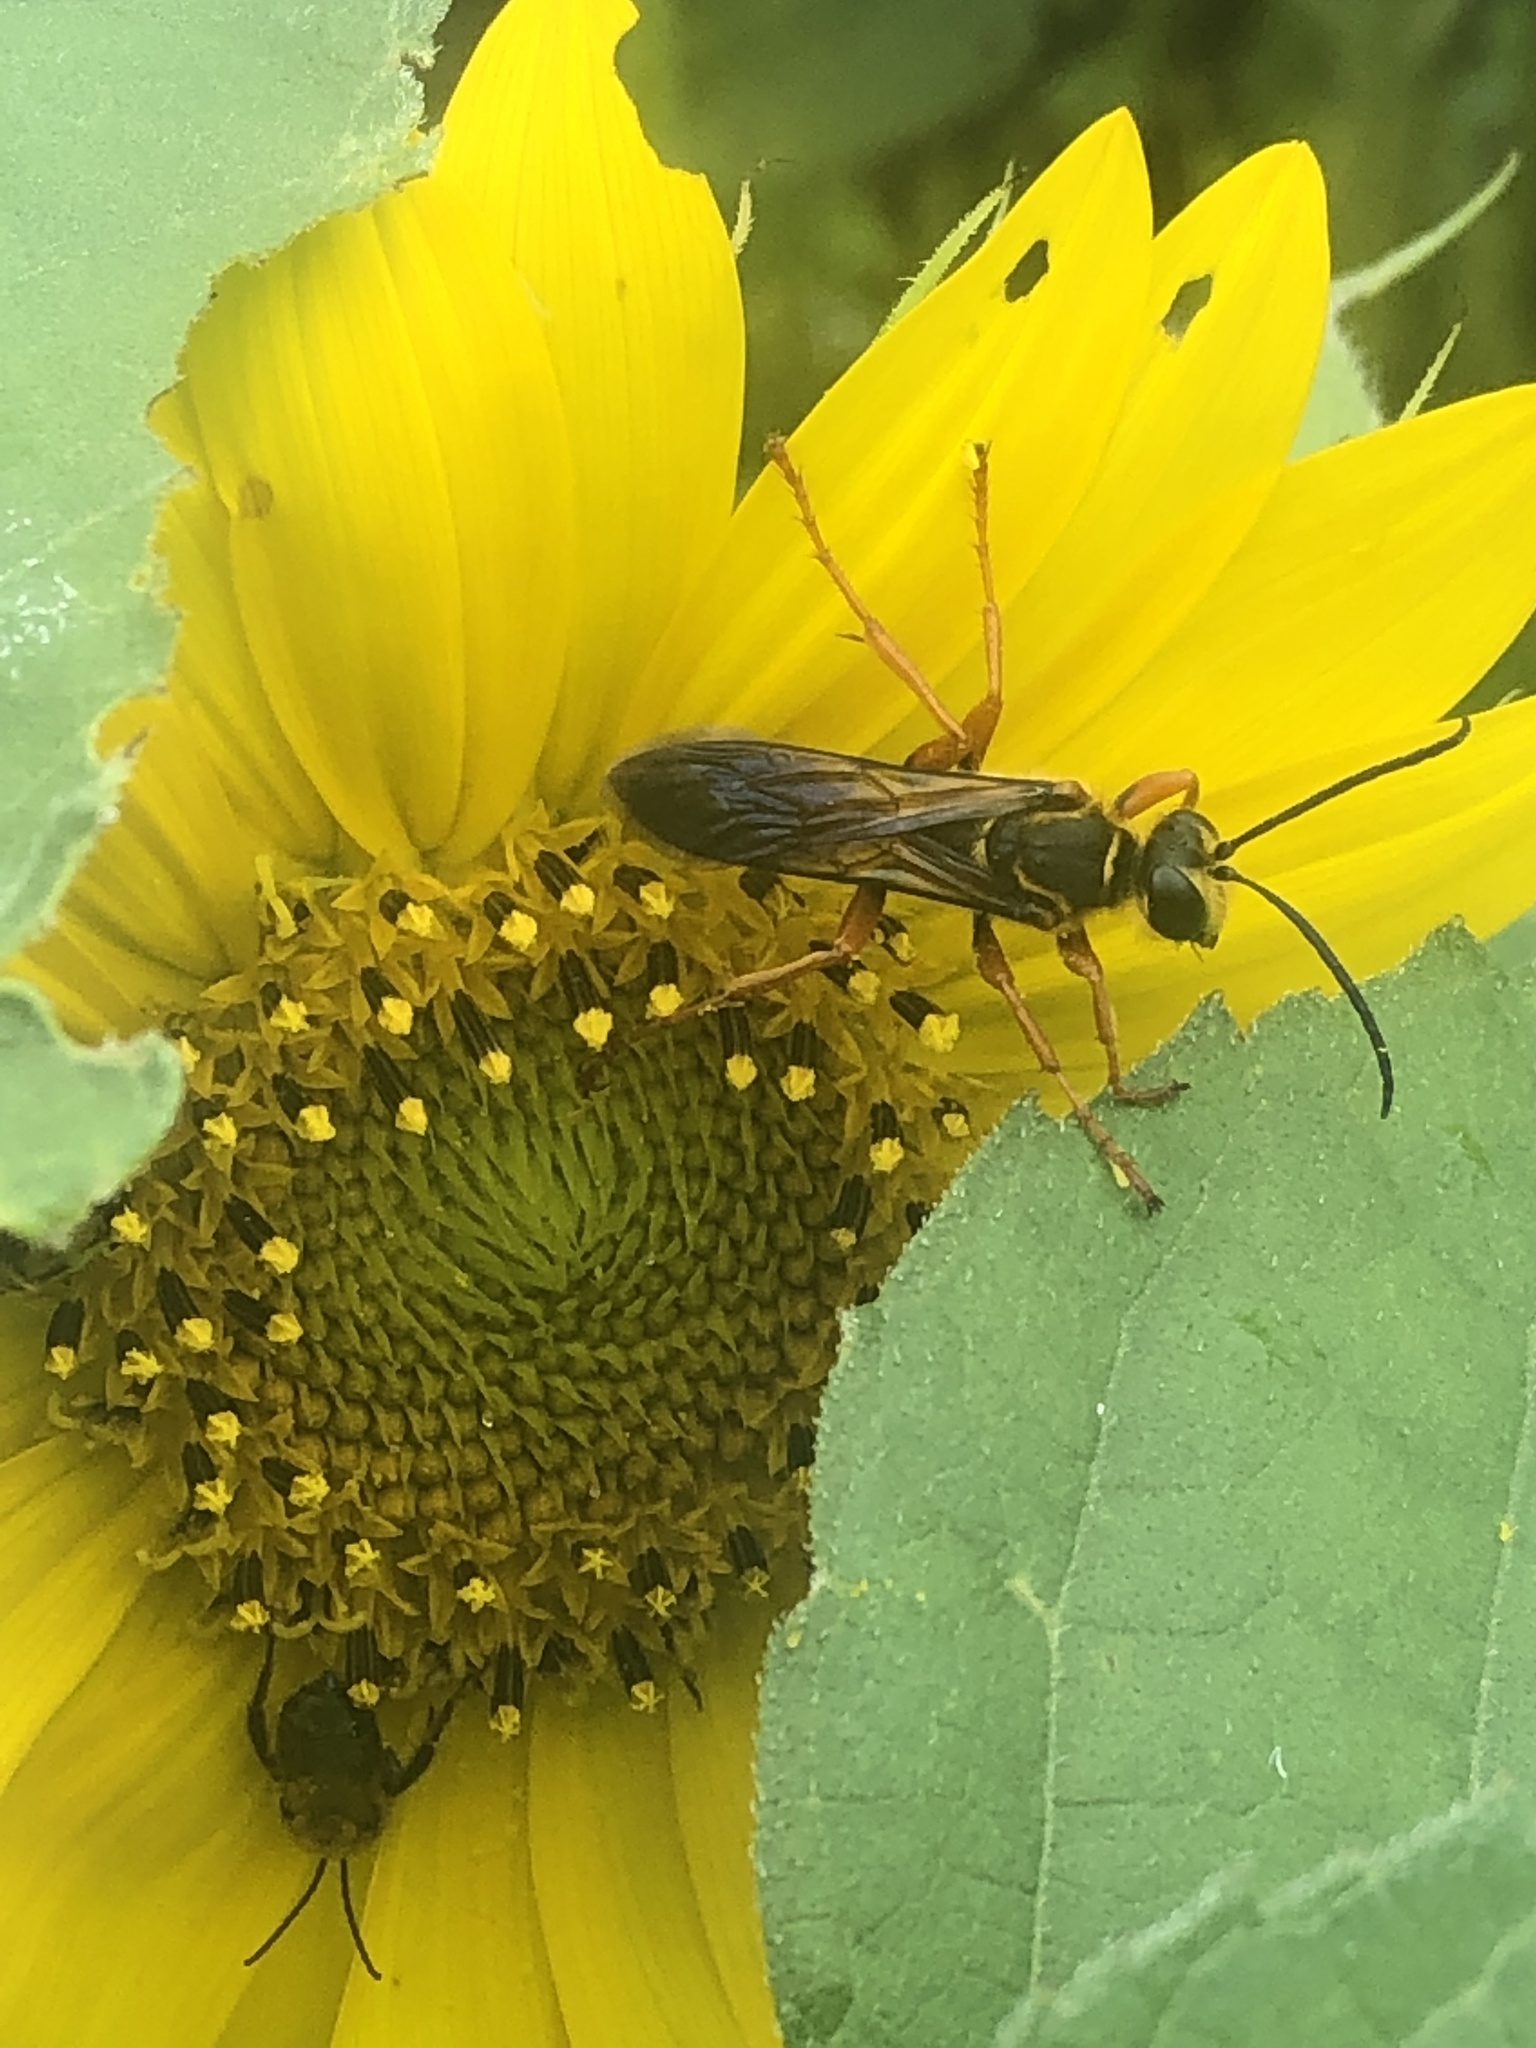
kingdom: Animalia
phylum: Arthropoda
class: Insecta
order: Hymenoptera
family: Sphecidae
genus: Sphex
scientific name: Sphex ichneumoneus
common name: Great golden digger wasp
